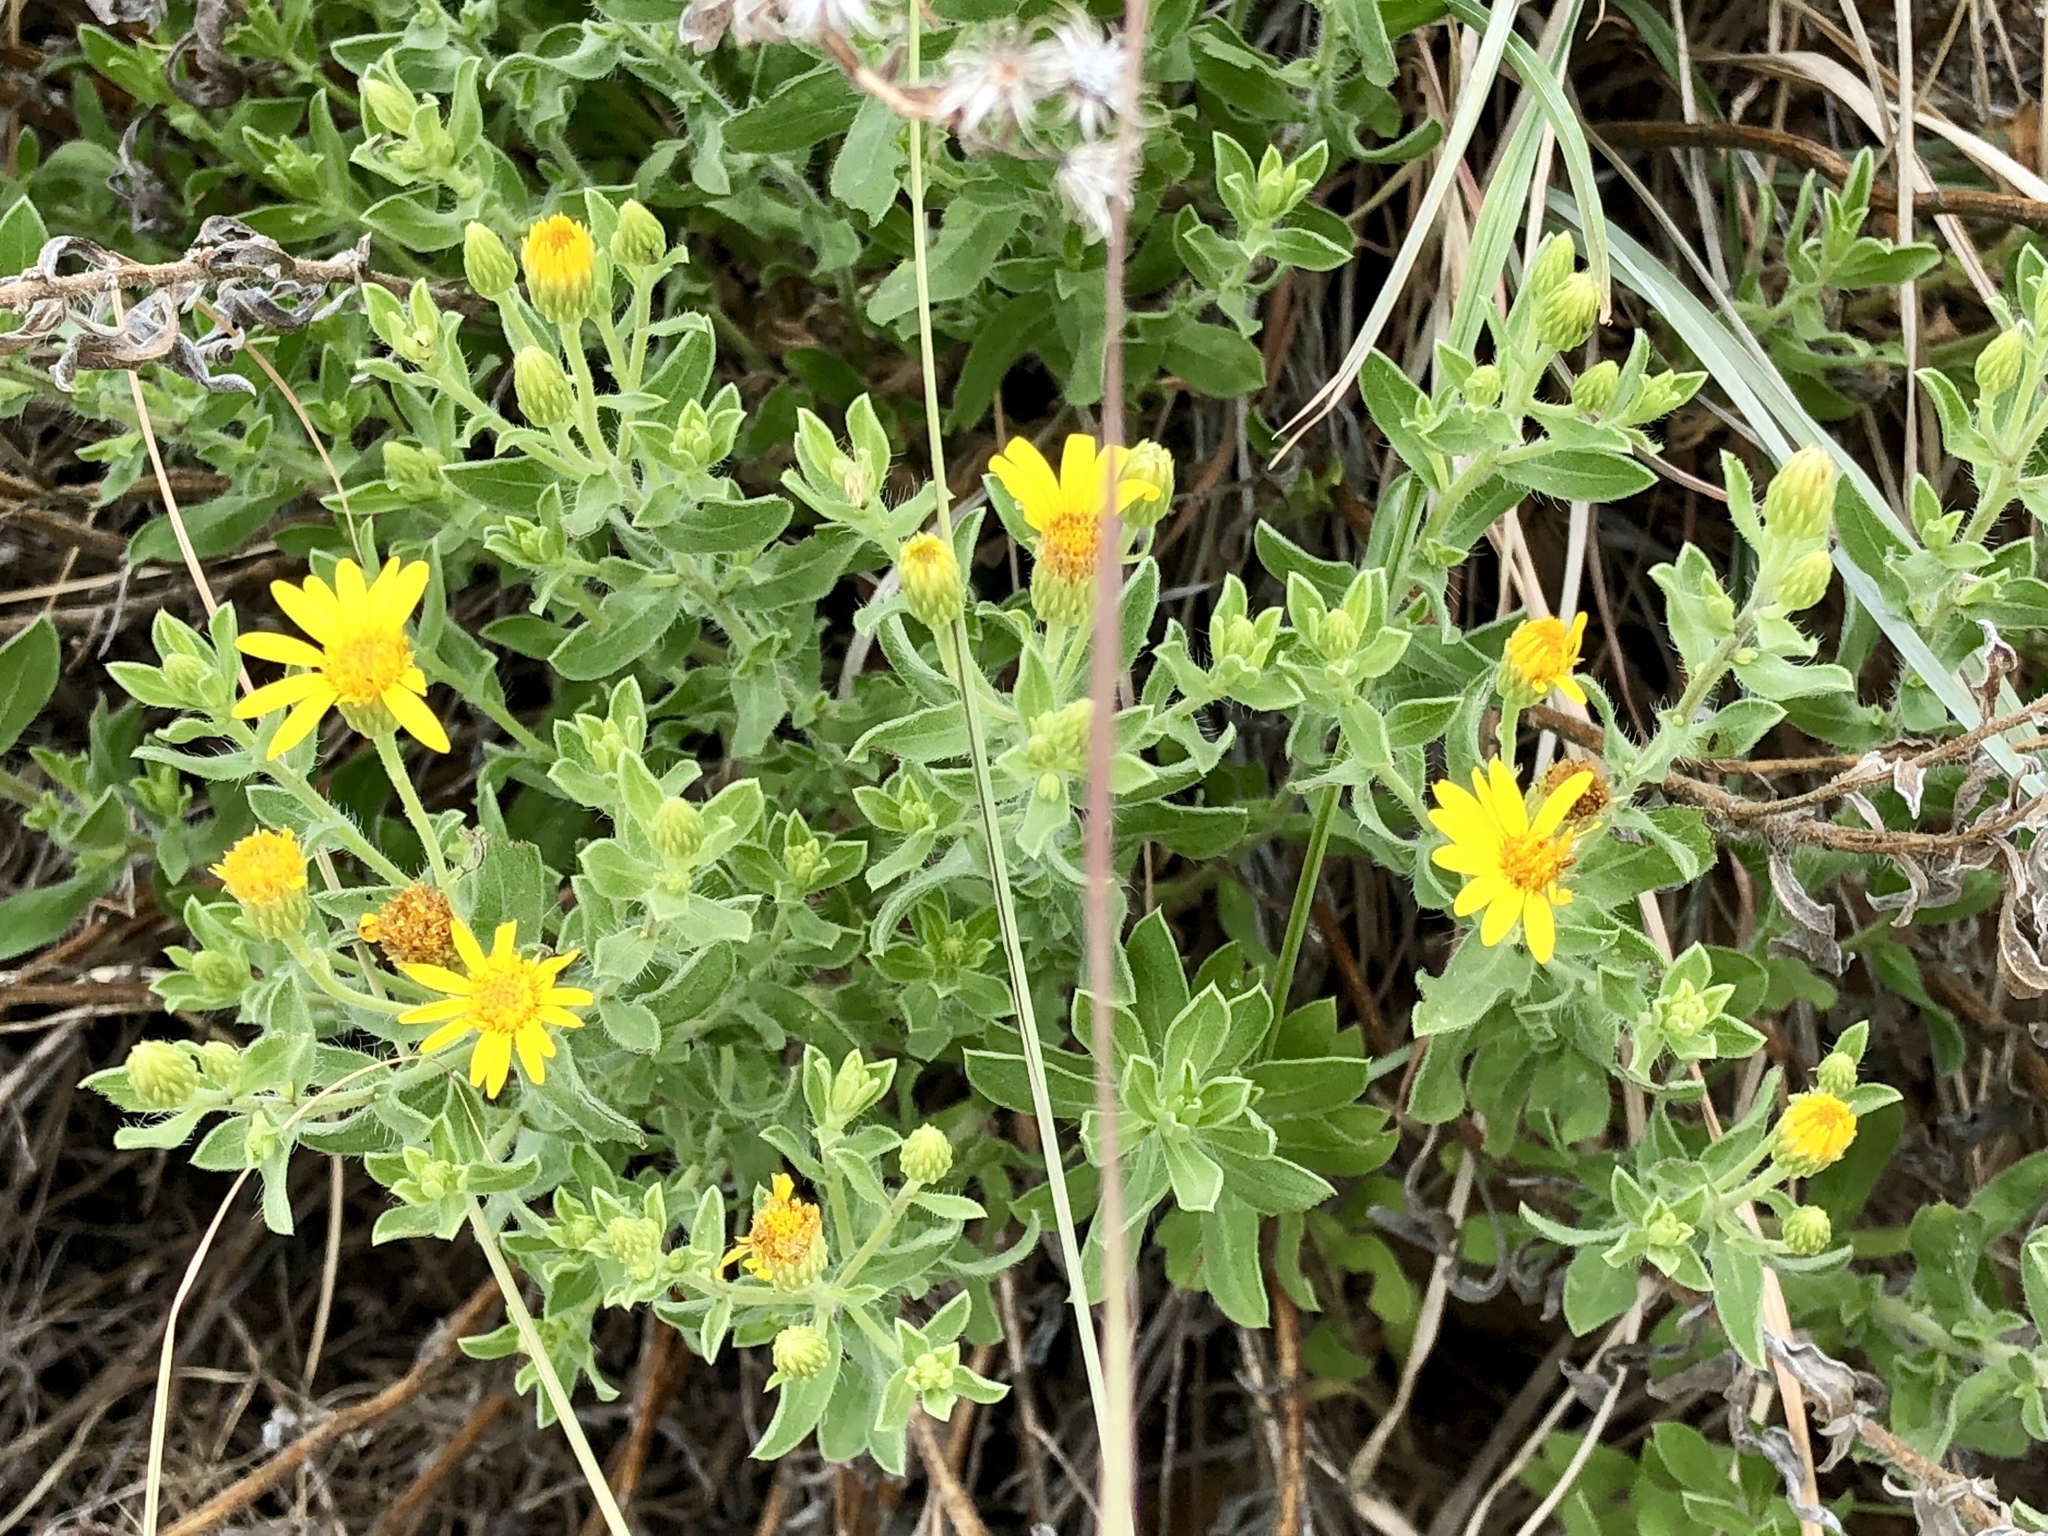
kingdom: Plantae
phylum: Tracheophyta
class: Magnoliopsida
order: Asterales
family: Asteraceae
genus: Heterotheca
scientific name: Heterotheca hirsutissima
